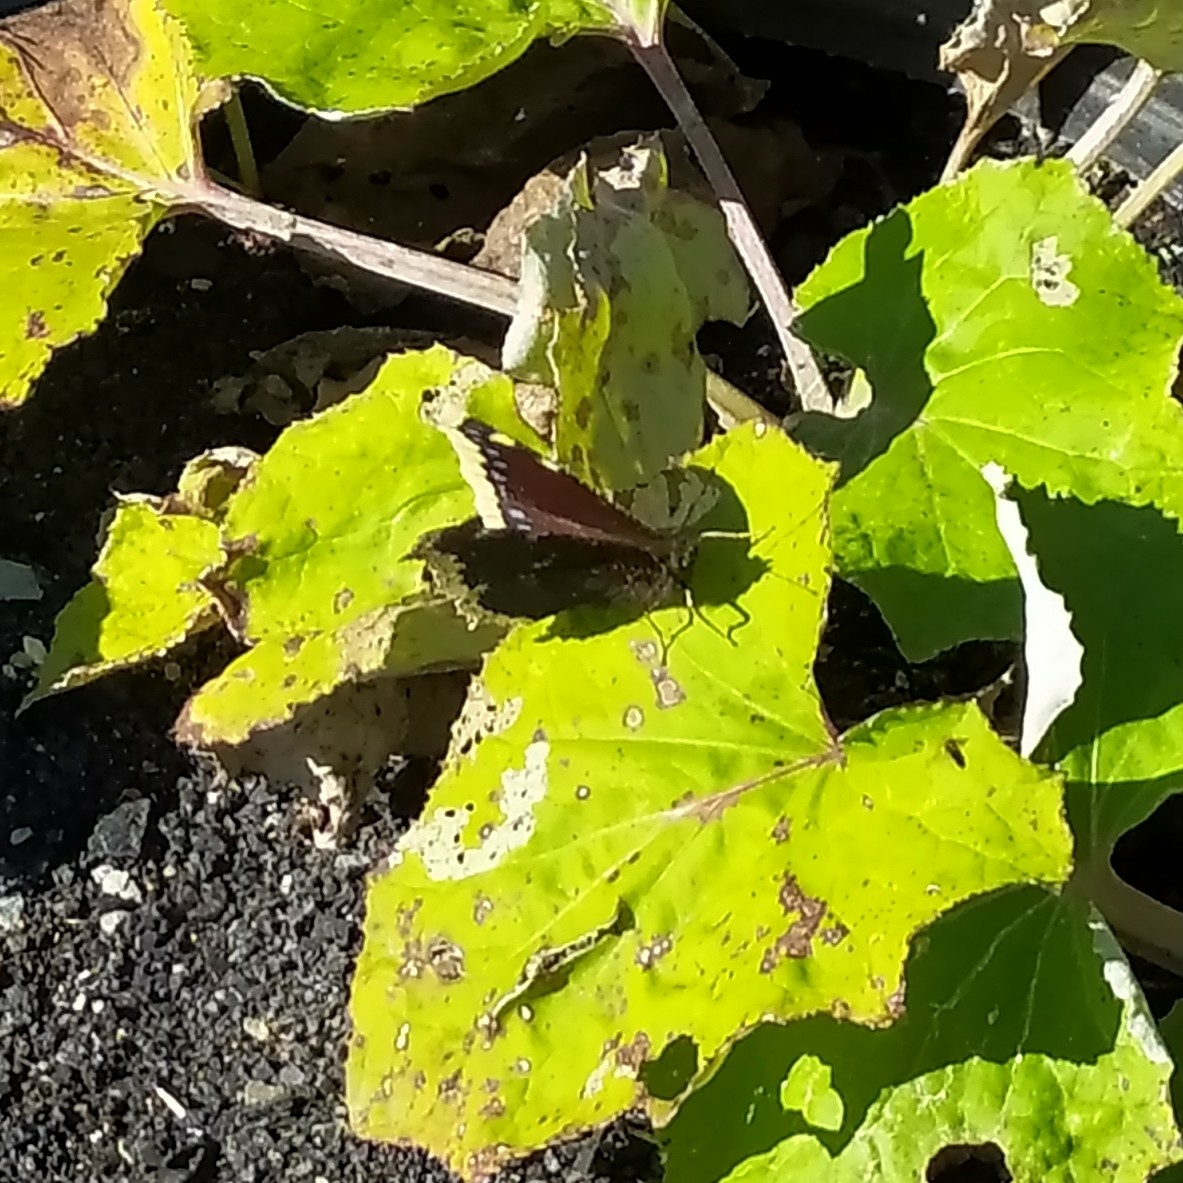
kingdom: Animalia
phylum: Arthropoda
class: Insecta
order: Lepidoptera
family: Nymphalidae
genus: Nymphalis
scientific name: Nymphalis antiopa
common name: Camberwell beauty
